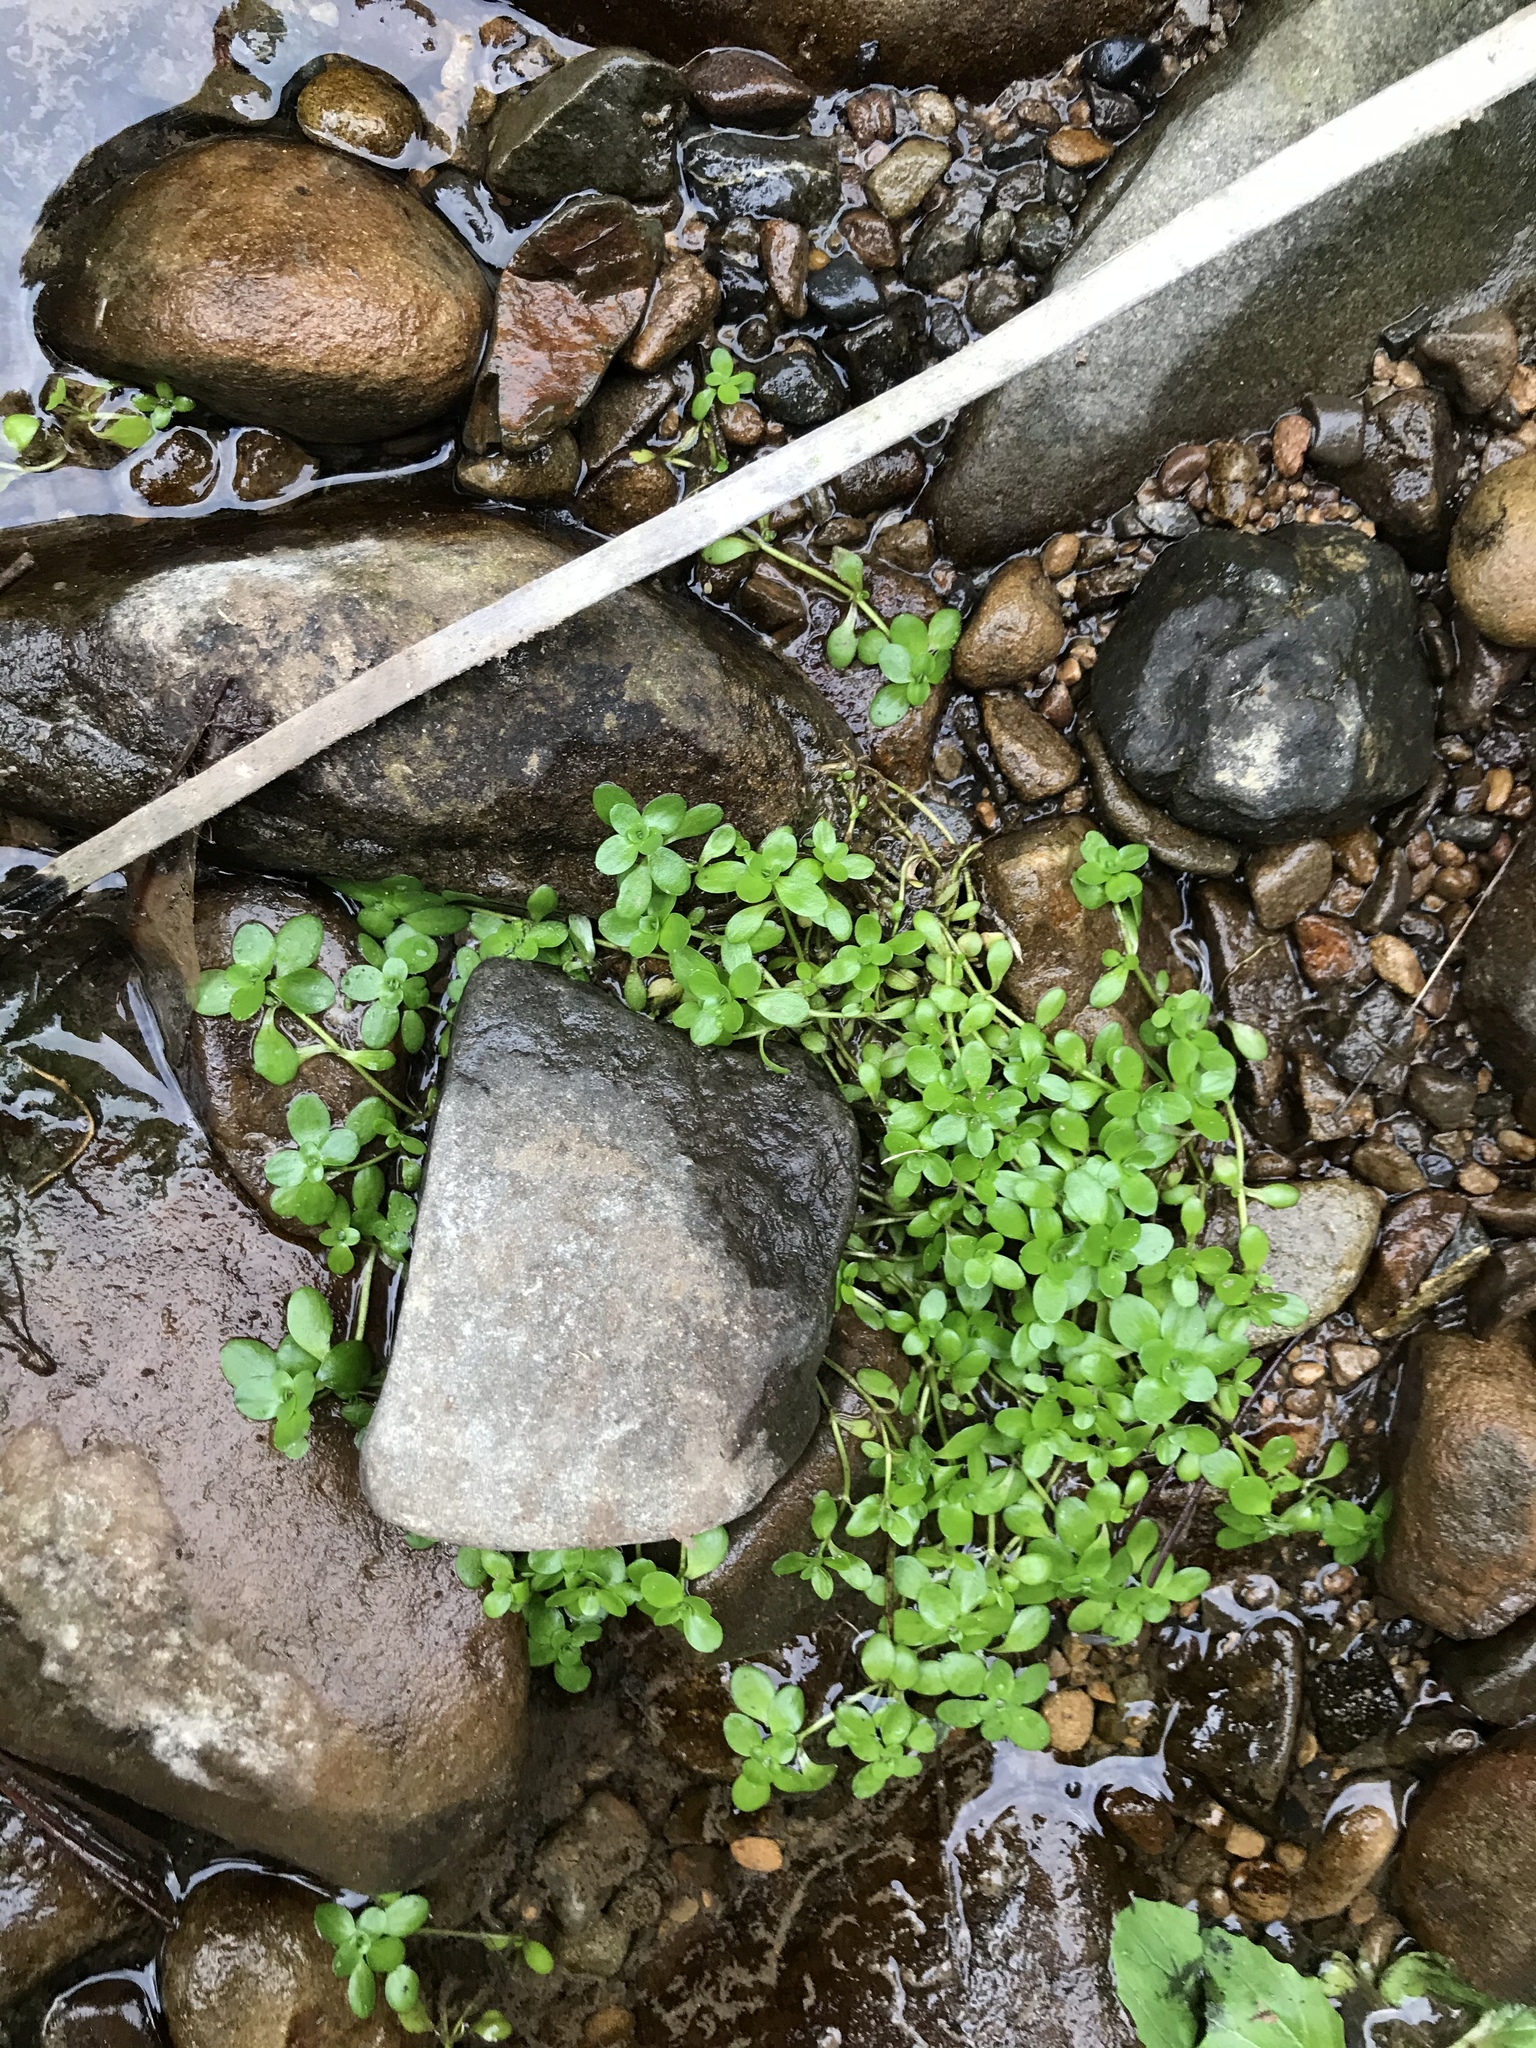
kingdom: Plantae
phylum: Tracheophyta
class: Magnoliopsida
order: Lamiales
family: Plantaginaceae
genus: Callitriche
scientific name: Callitriche stagnalis
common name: Common water-starwort
